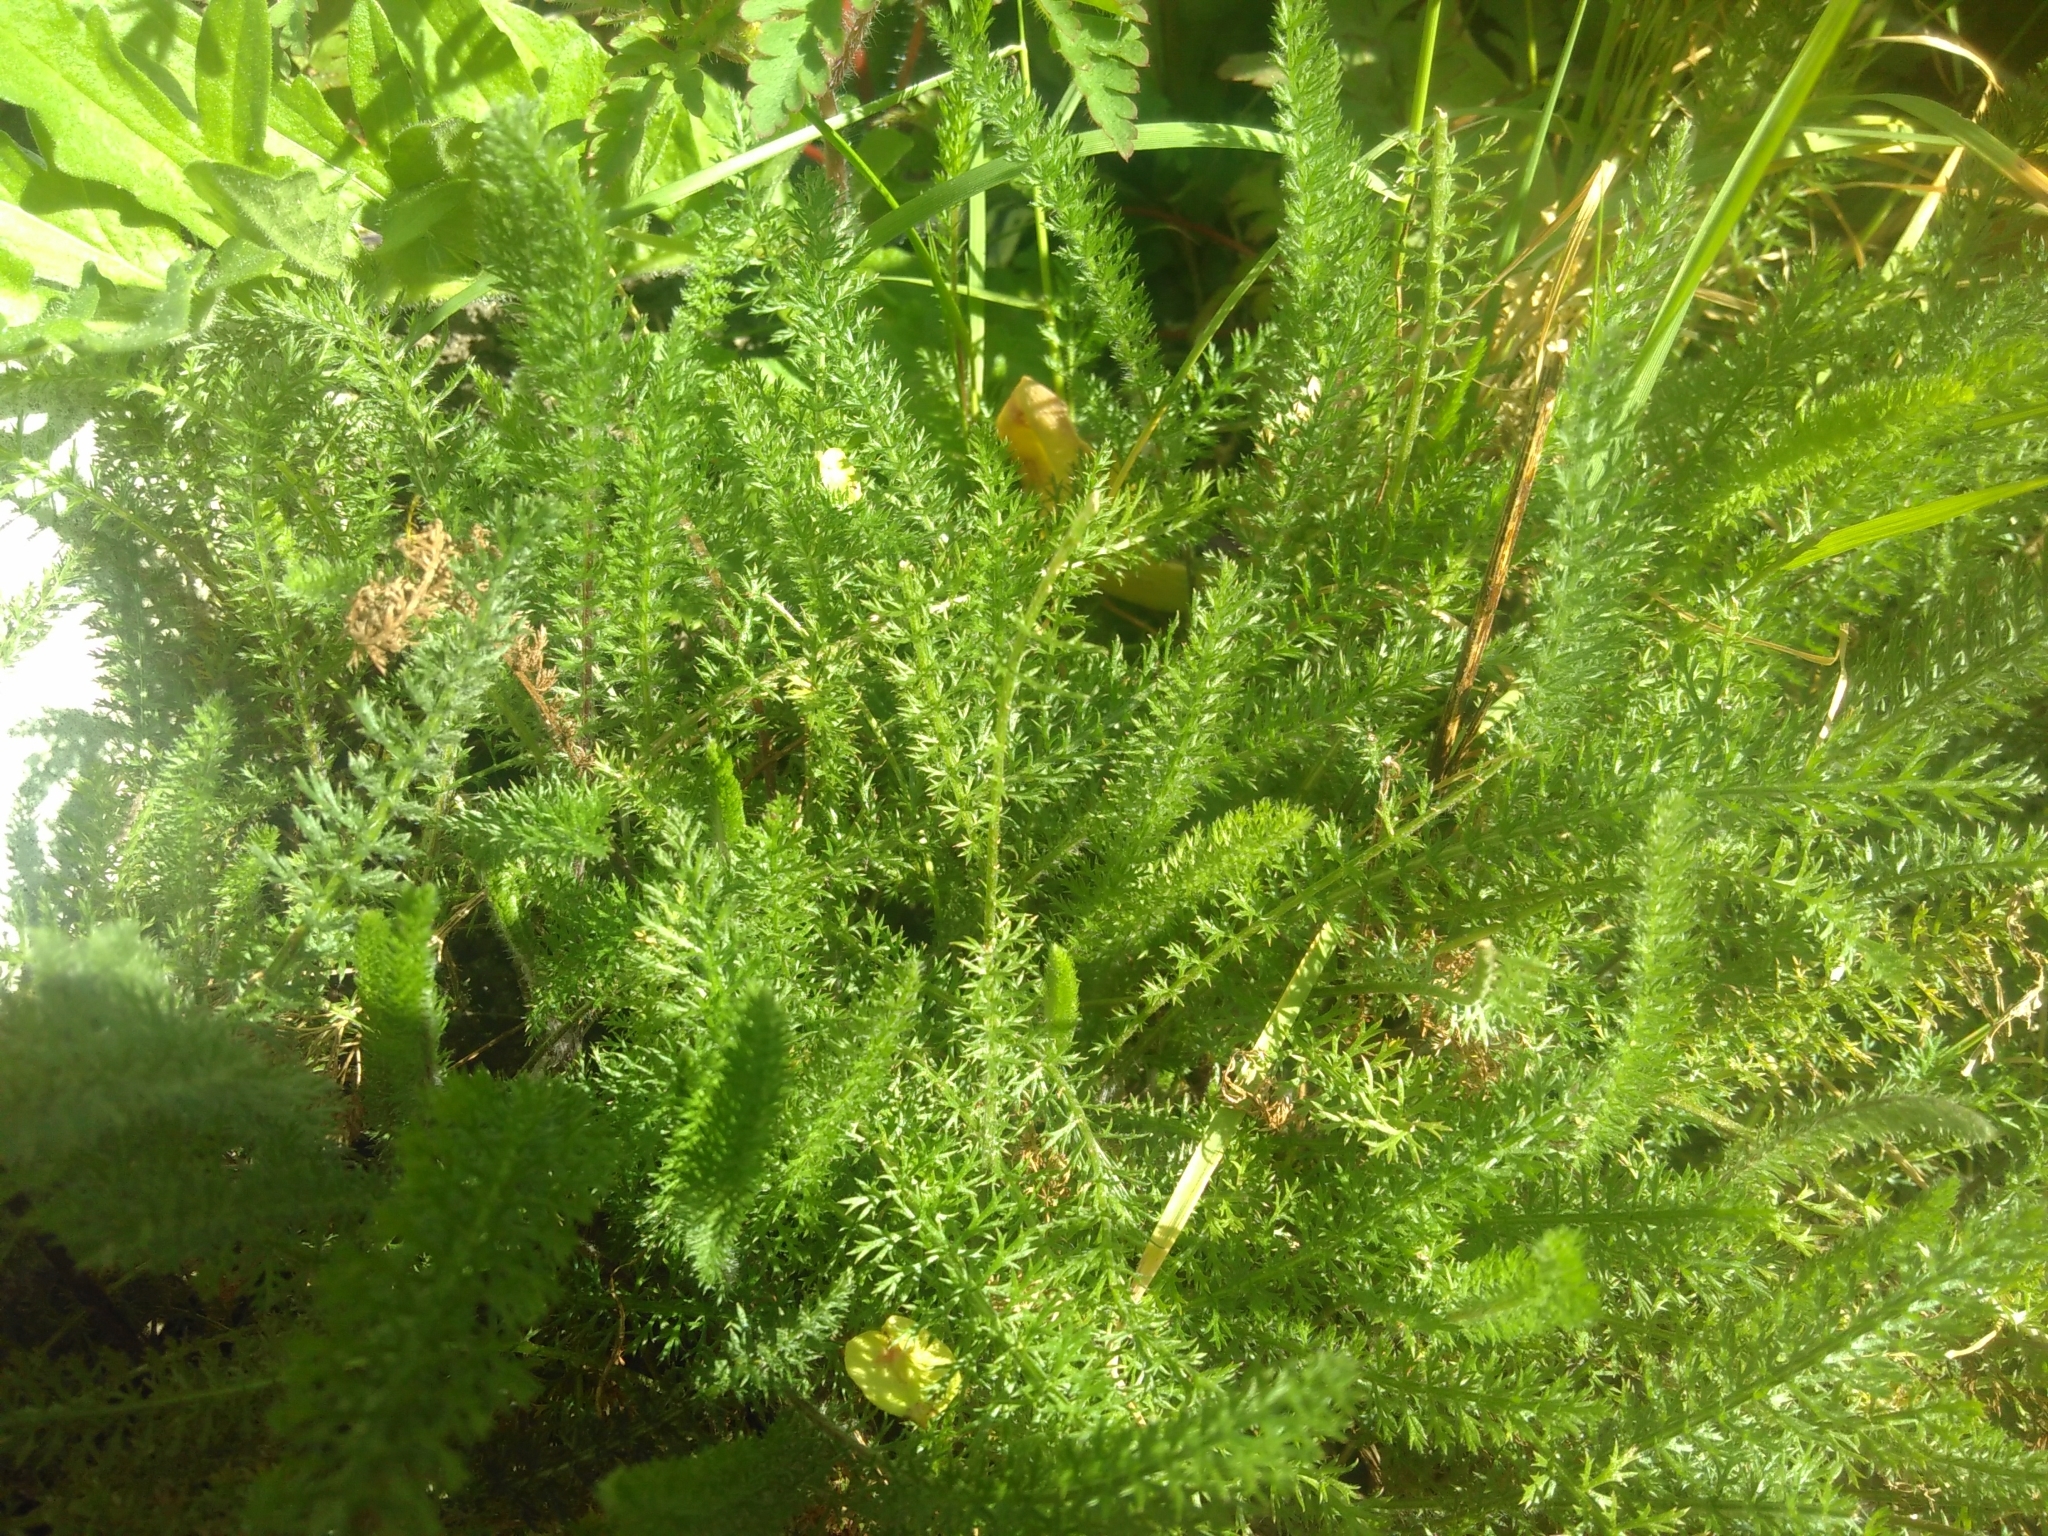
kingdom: Plantae
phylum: Tracheophyta
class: Magnoliopsida
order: Asterales
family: Asteraceae
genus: Achillea
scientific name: Achillea millefolium
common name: Yarrow
